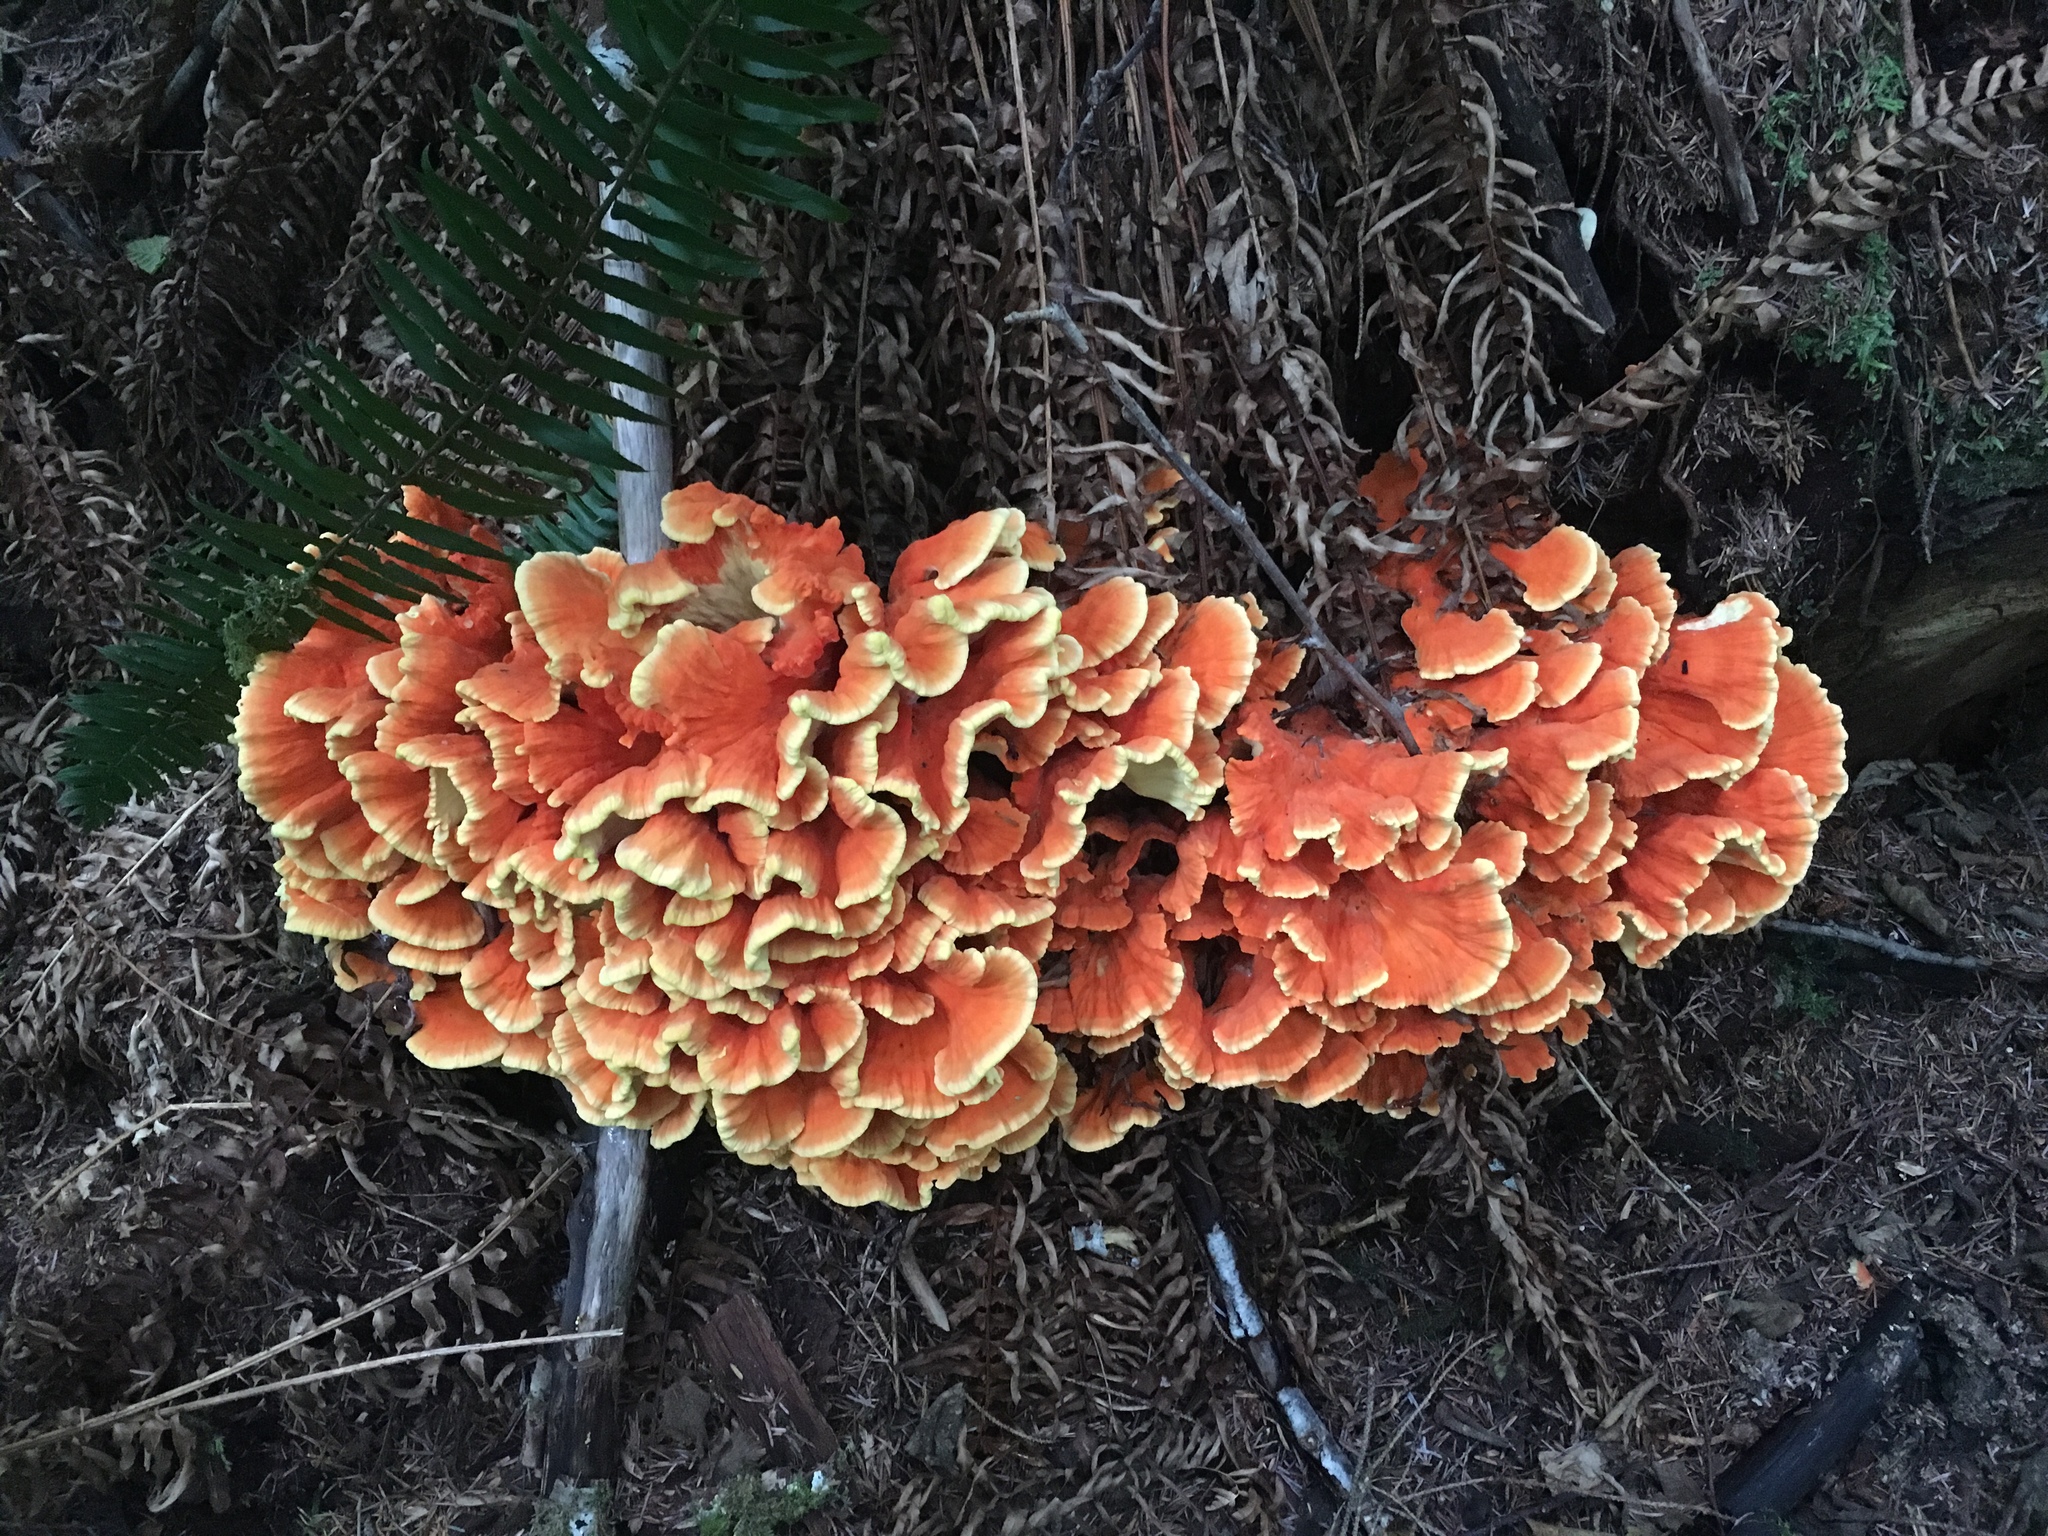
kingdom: Fungi
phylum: Basidiomycota
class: Agaricomycetes
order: Polyporales
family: Laetiporaceae
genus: Laetiporus
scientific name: Laetiporus conifericola
